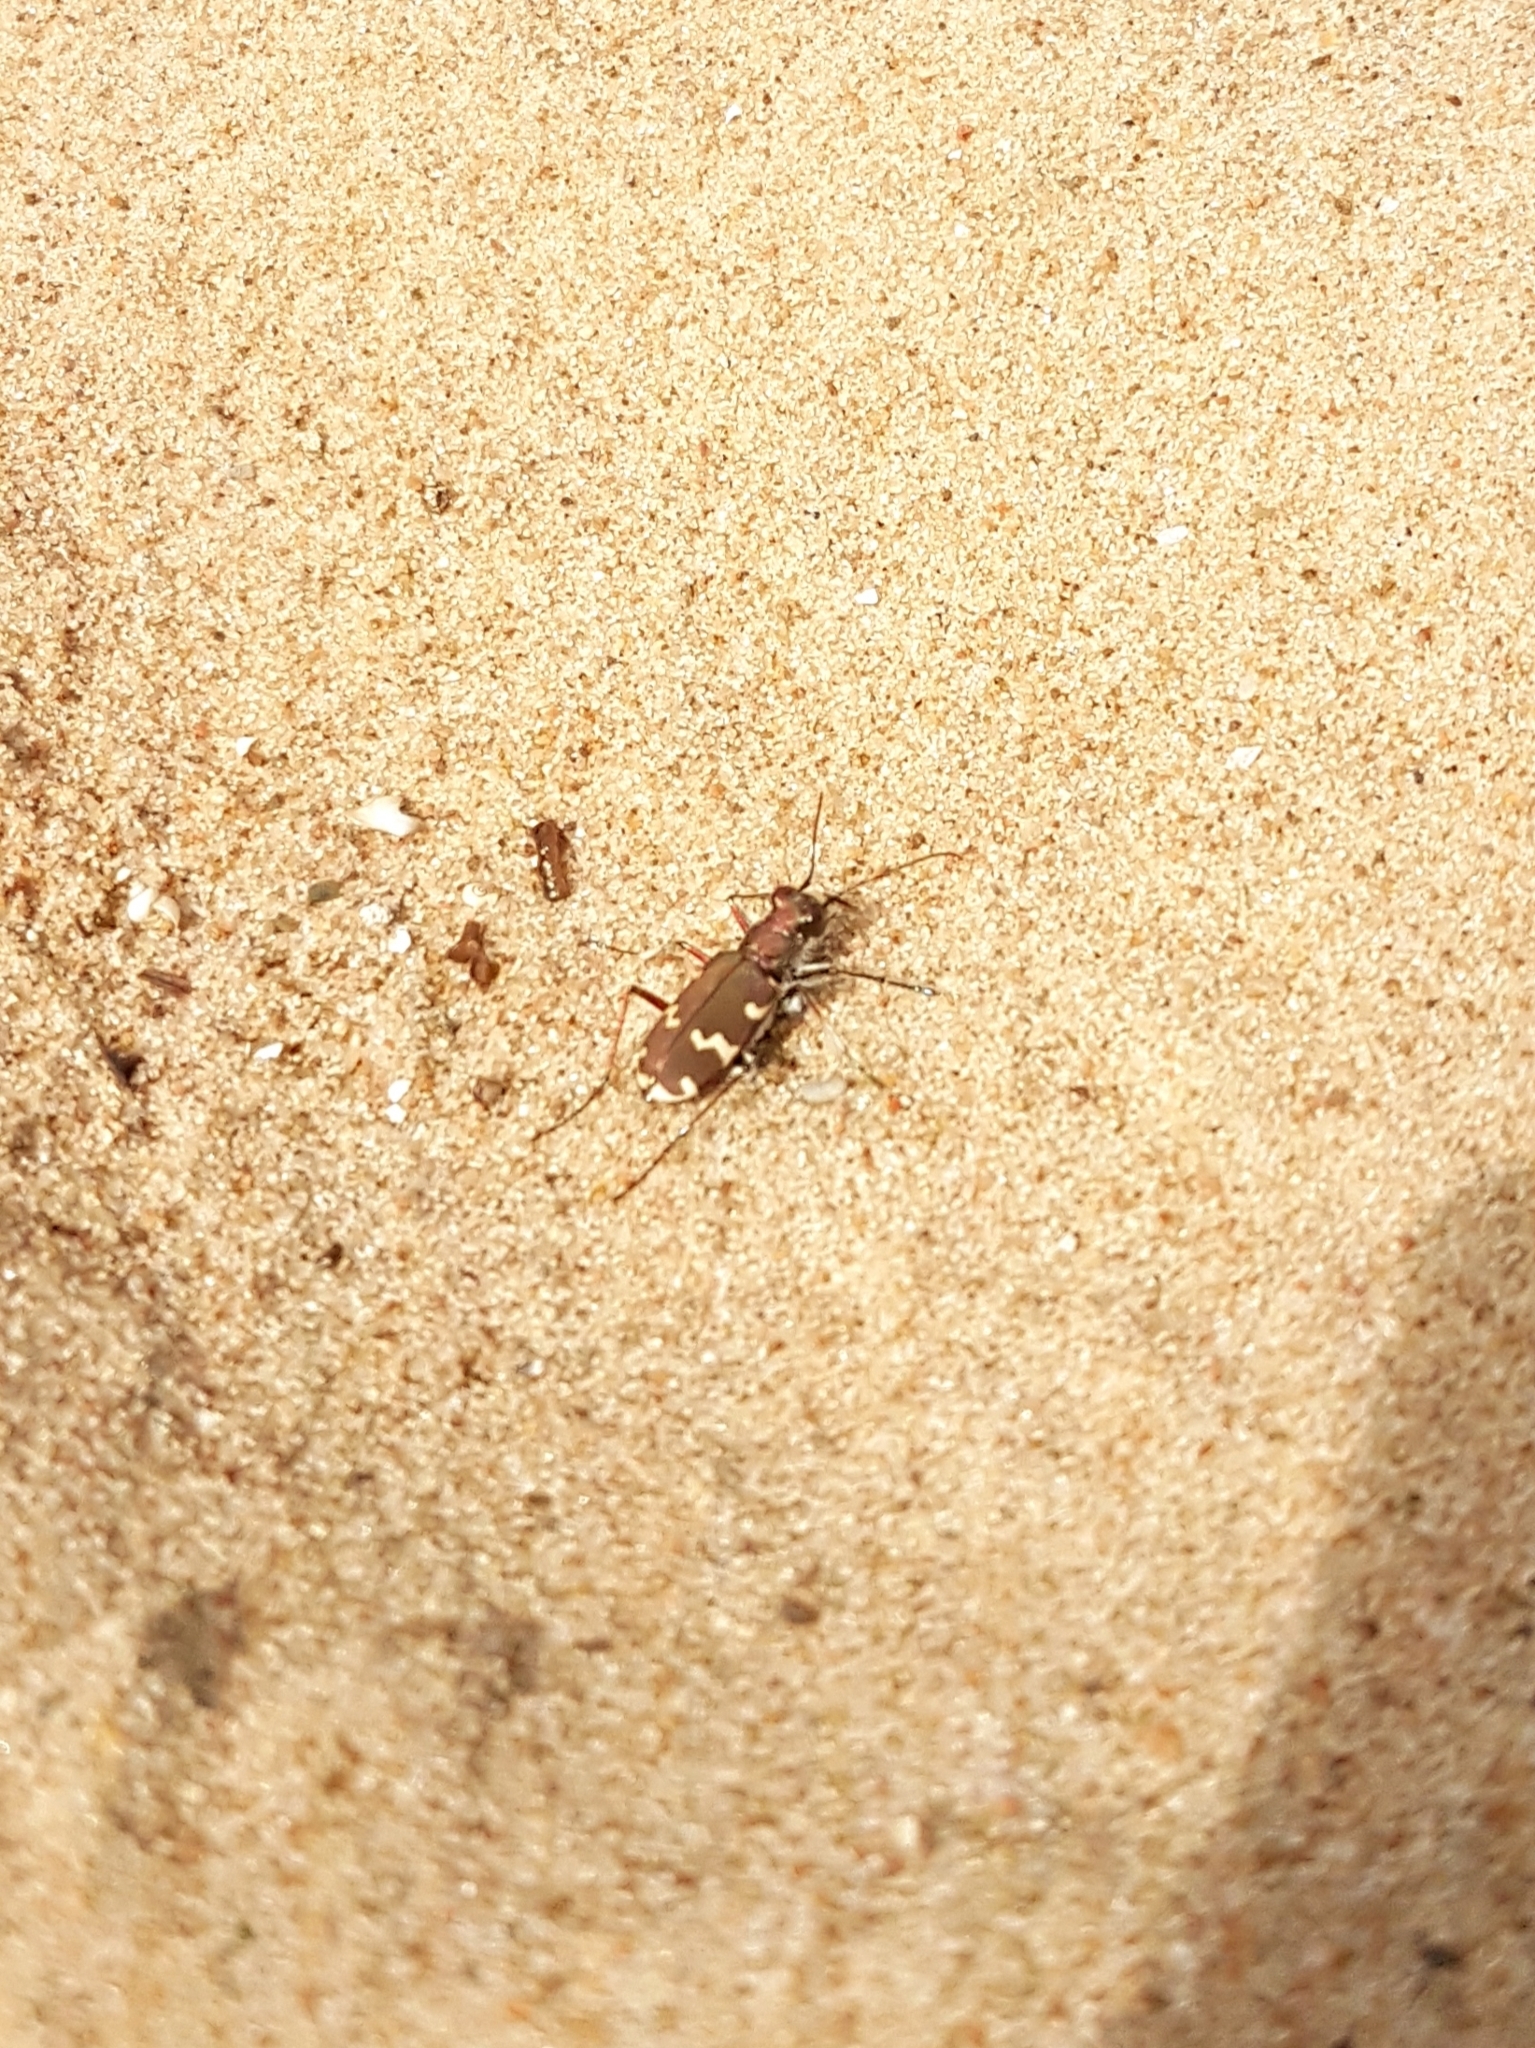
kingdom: Animalia
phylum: Arthropoda
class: Insecta
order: Coleoptera
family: Carabidae
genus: Cicindela
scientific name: Cicindela hybrida
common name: Northern dune tiger beetle
